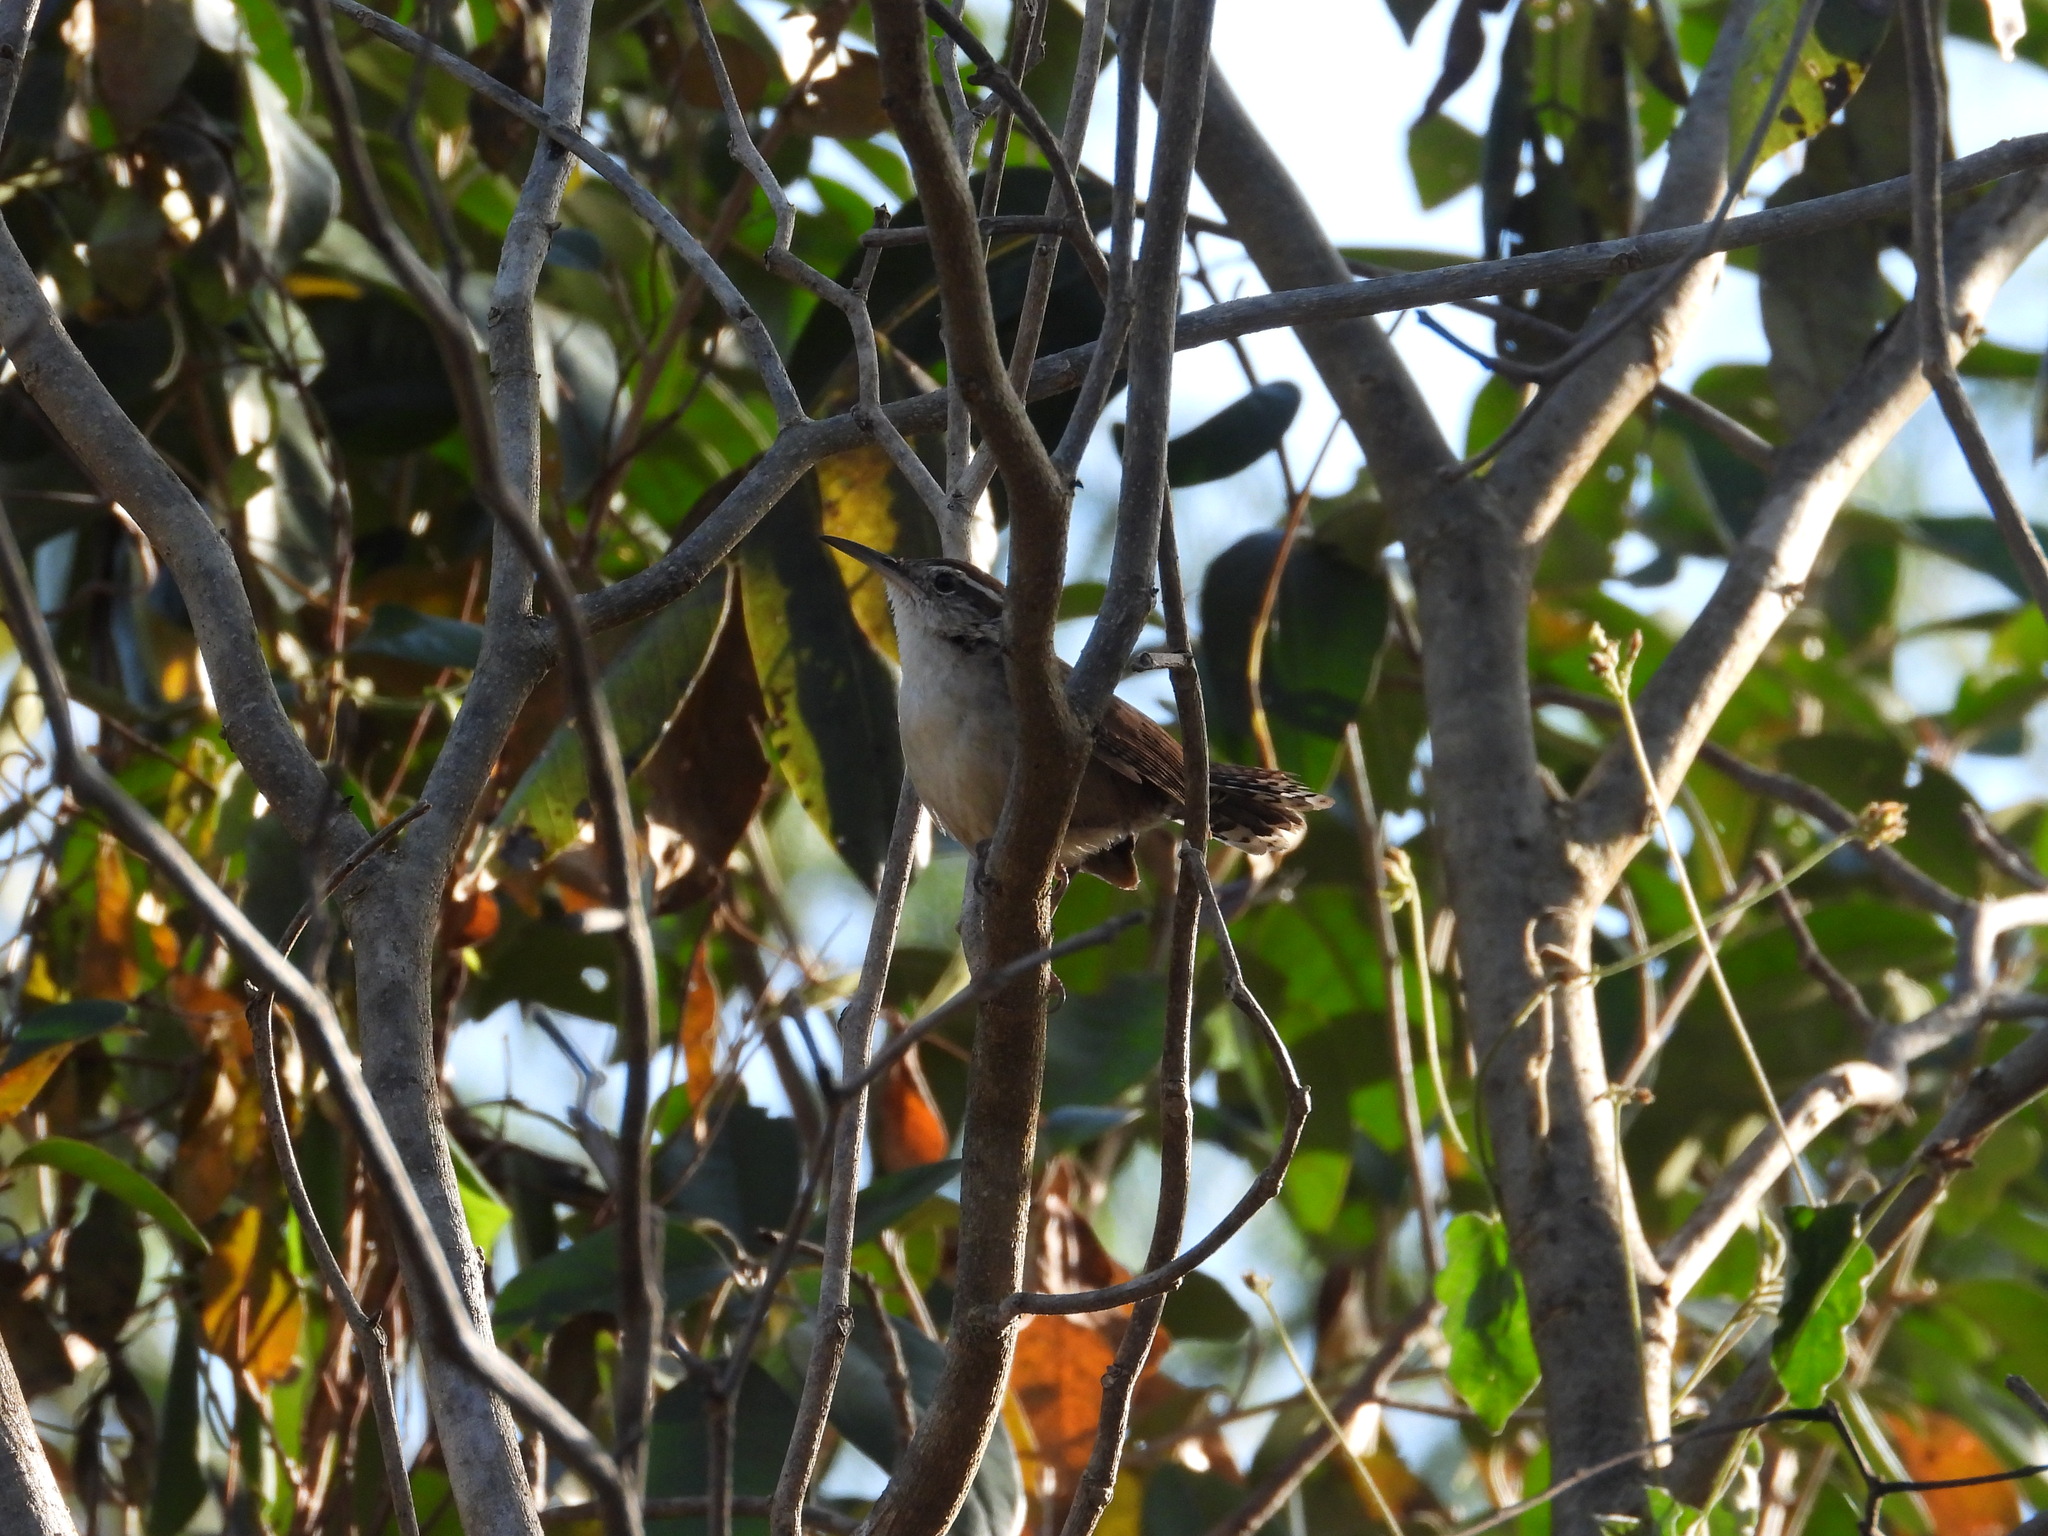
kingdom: Animalia
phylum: Chordata
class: Aves
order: Passeriformes
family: Troglodytidae
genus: Thryothorus
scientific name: Thryothorus ludovicianus
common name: Carolina wren
